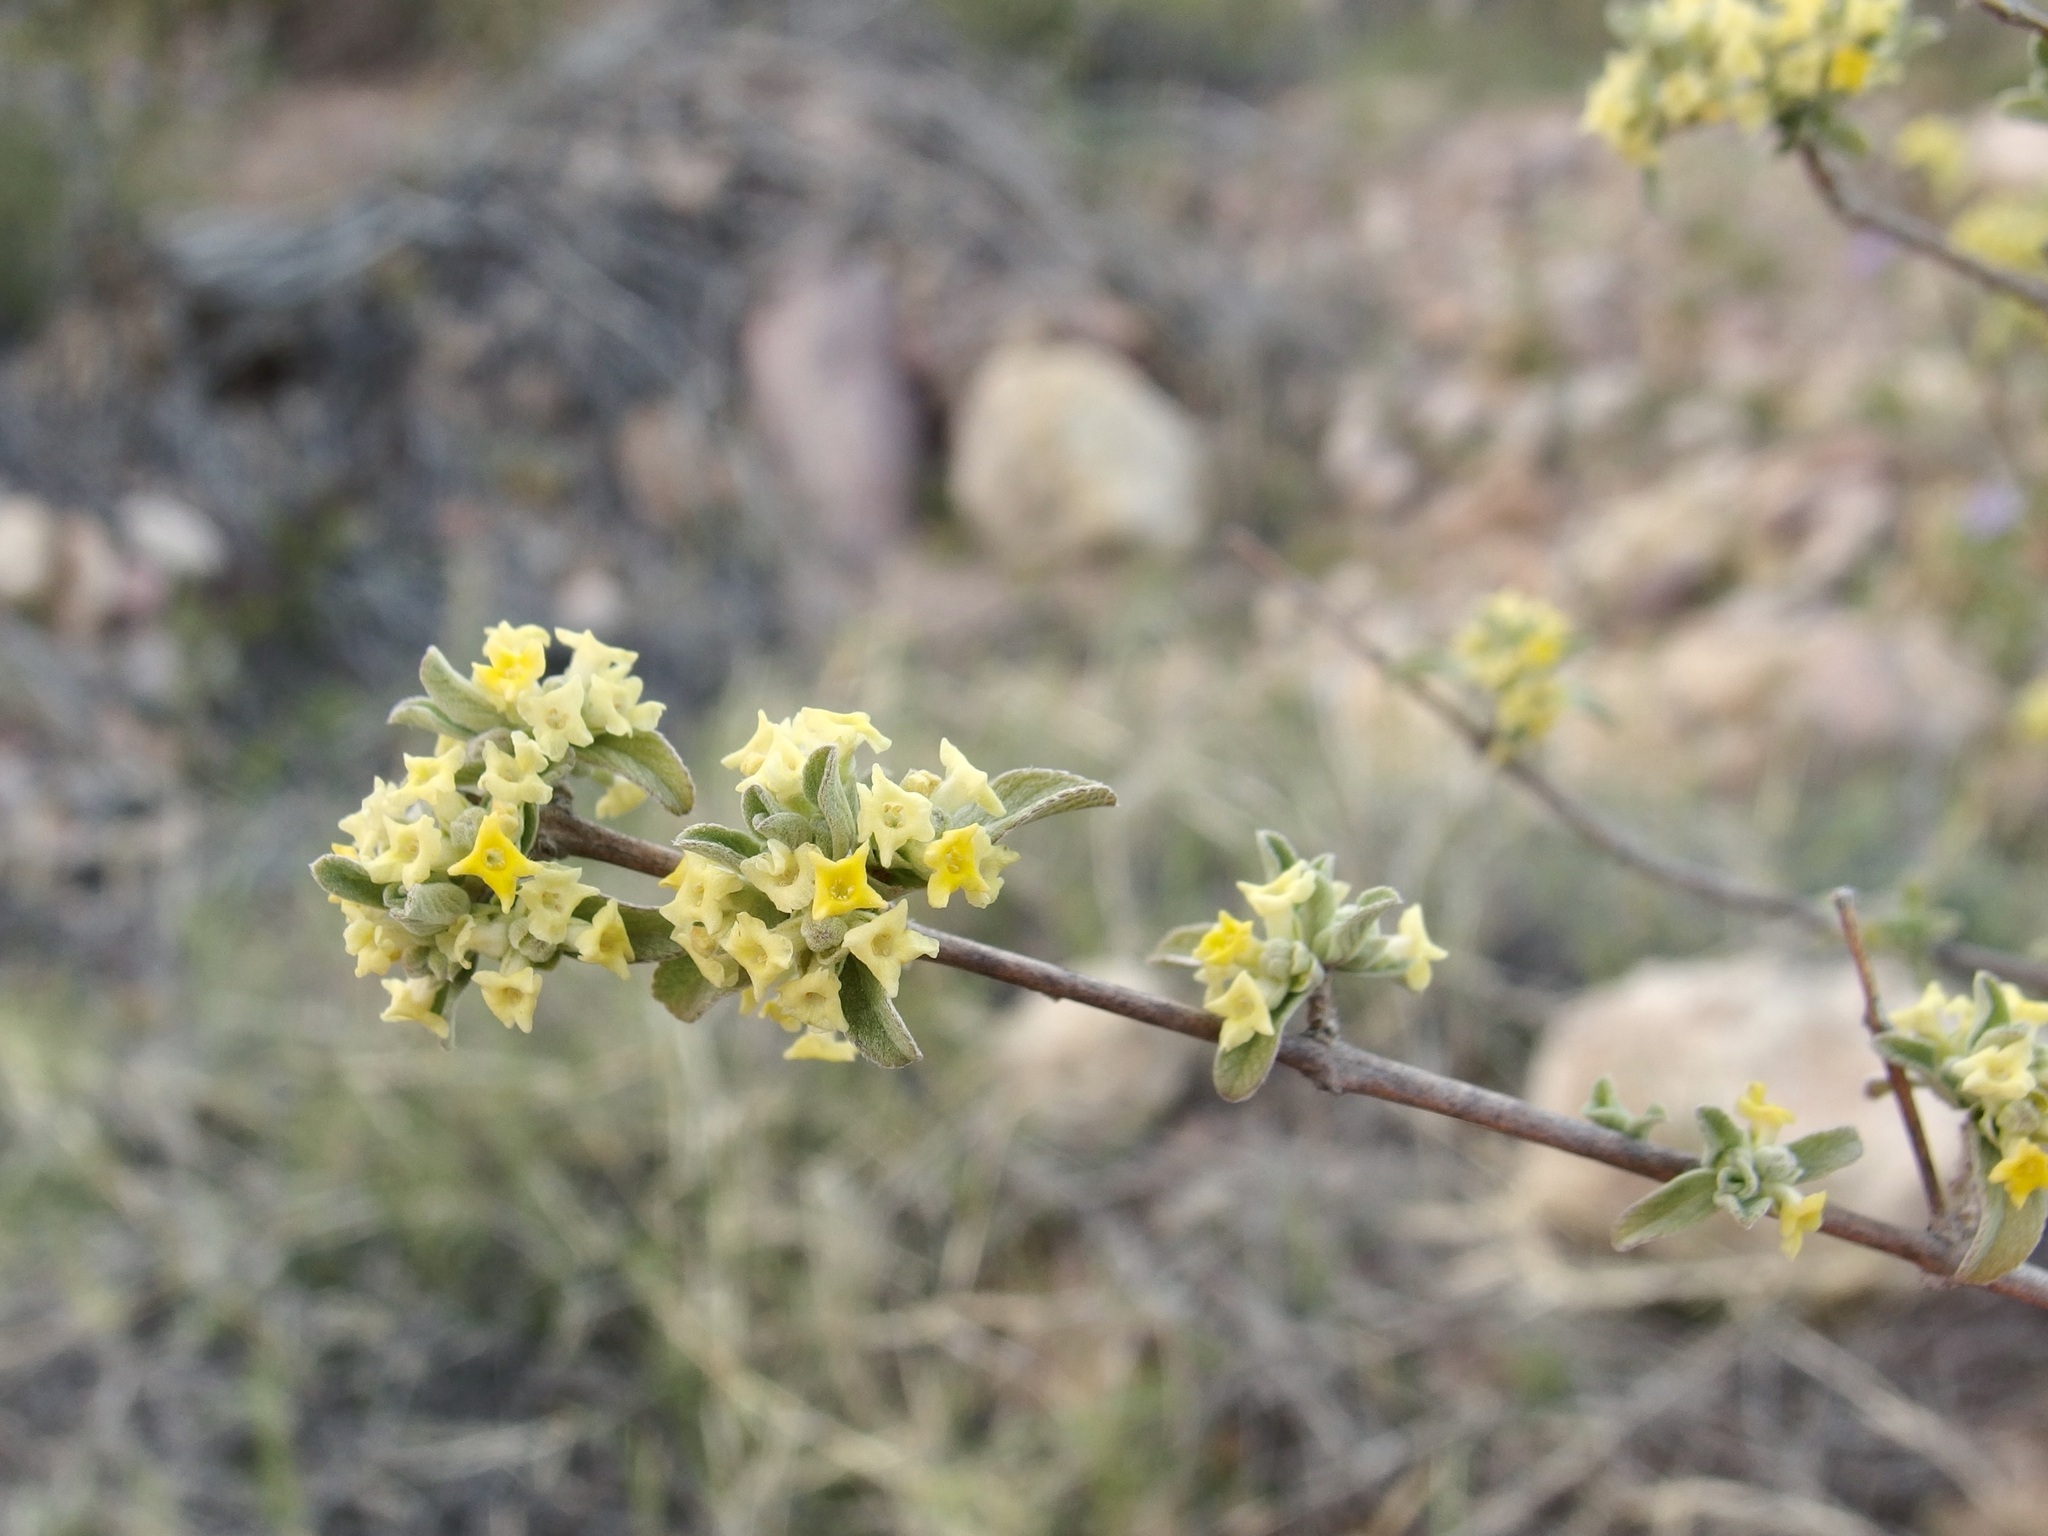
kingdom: Plantae
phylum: Tracheophyta
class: Magnoliopsida
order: Lamiales
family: Verbenaceae
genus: Aloysia
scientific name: Aloysia sonorensis
